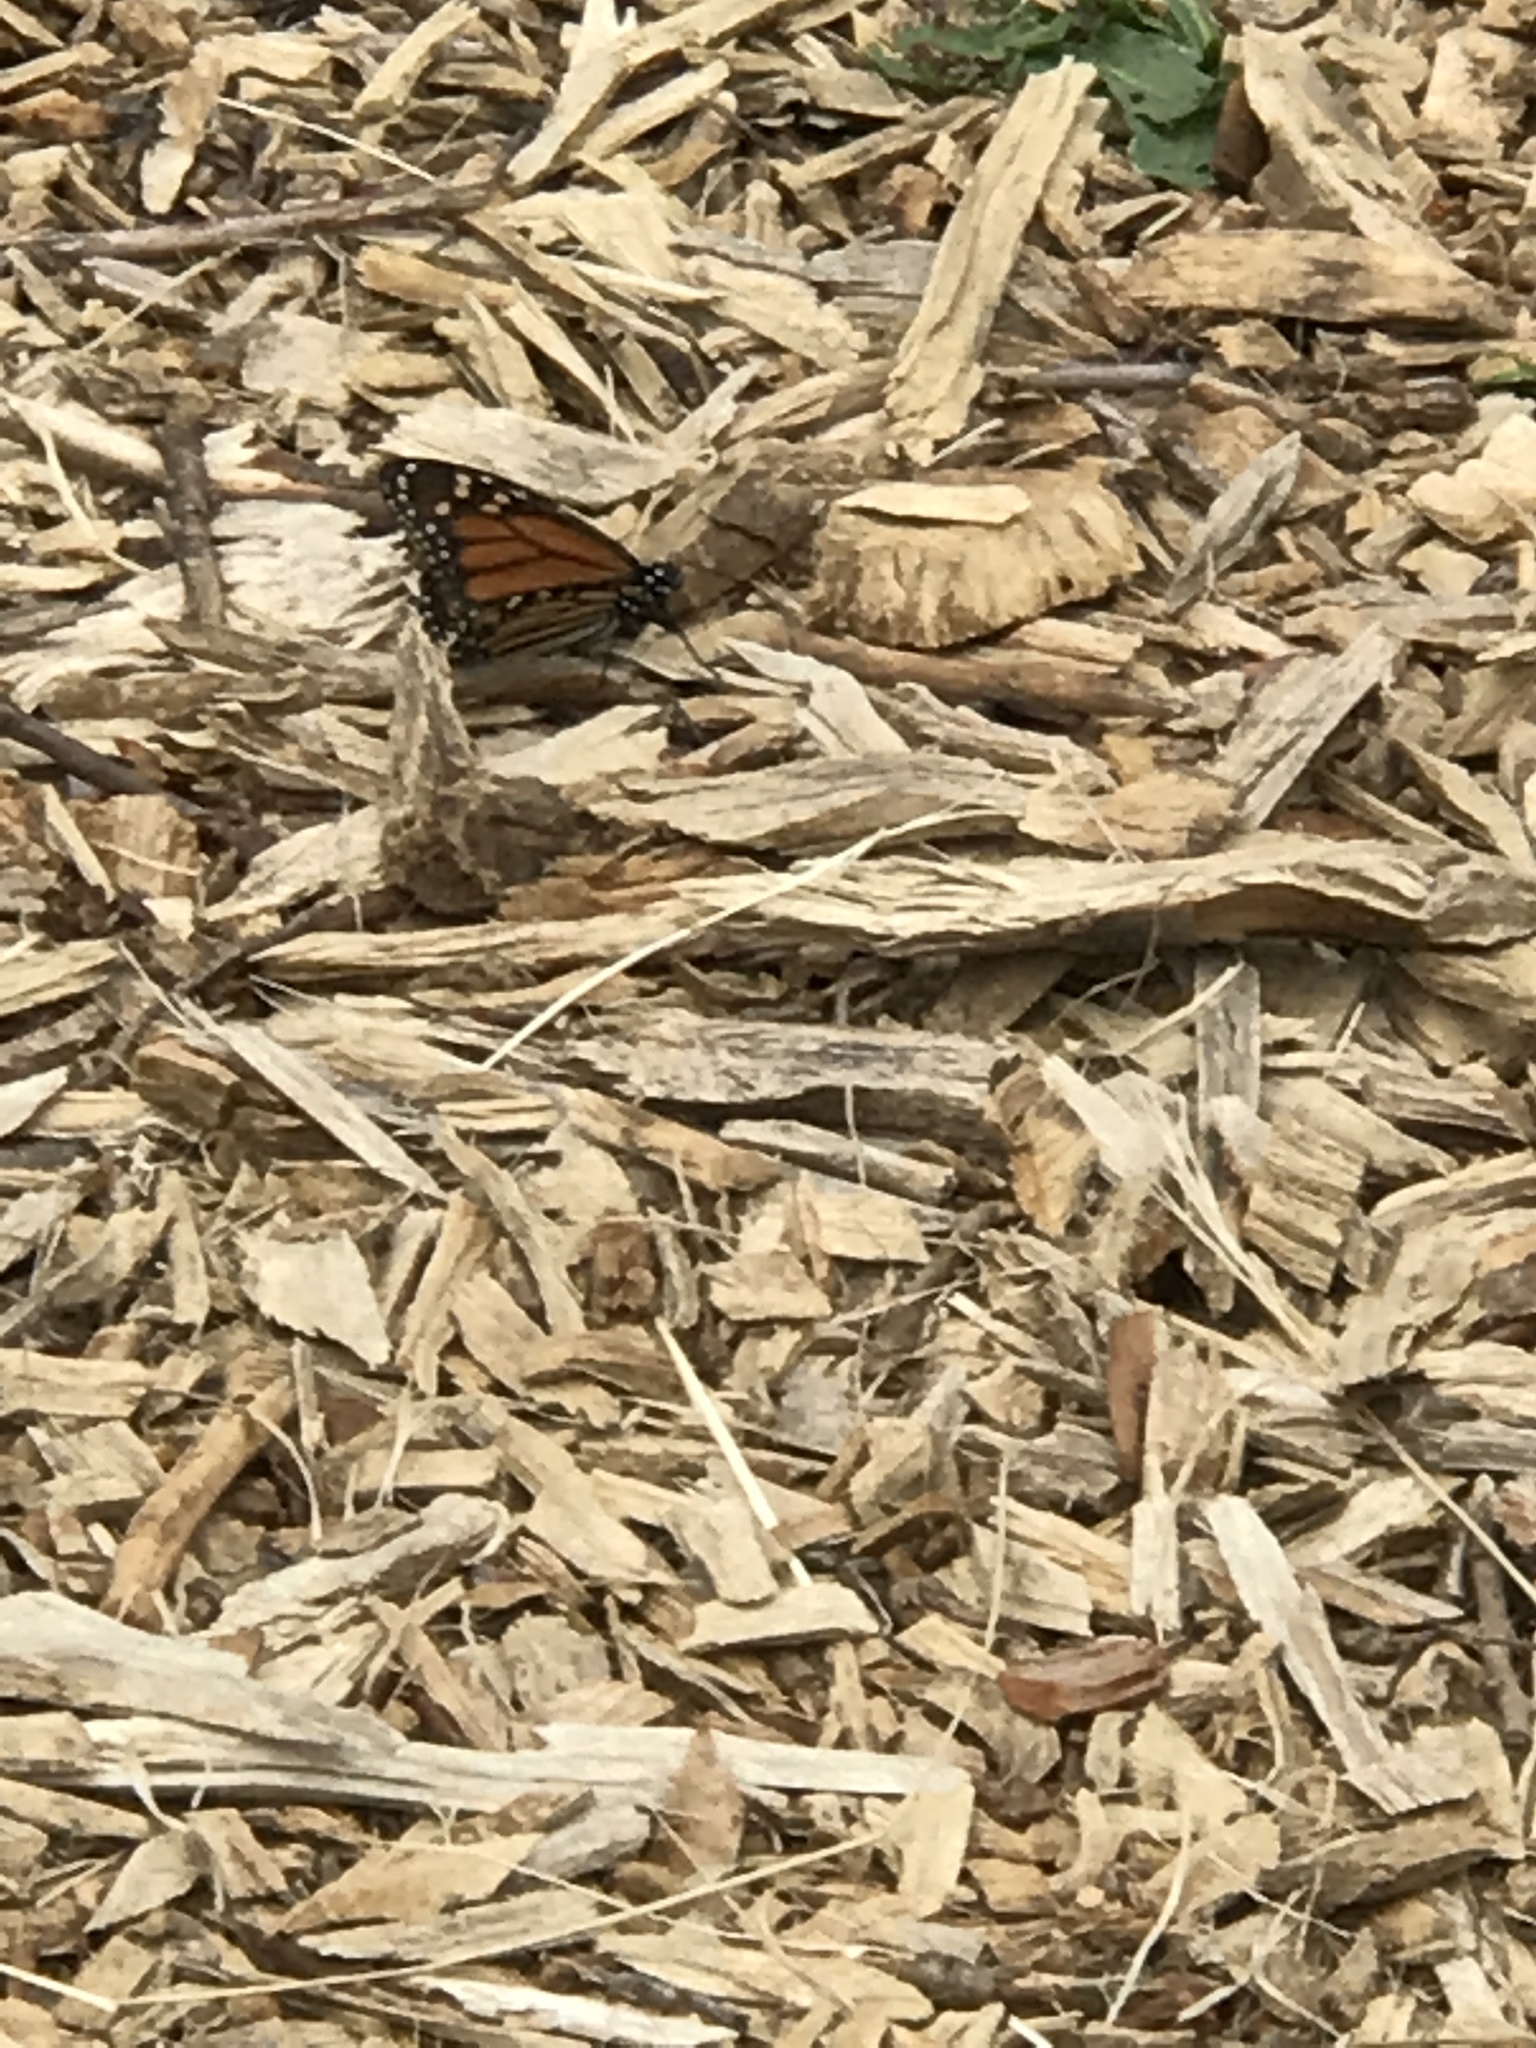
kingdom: Animalia
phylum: Arthropoda
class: Insecta
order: Lepidoptera
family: Nymphalidae
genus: Danaus
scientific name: Danaus plexippus
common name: Monarch
